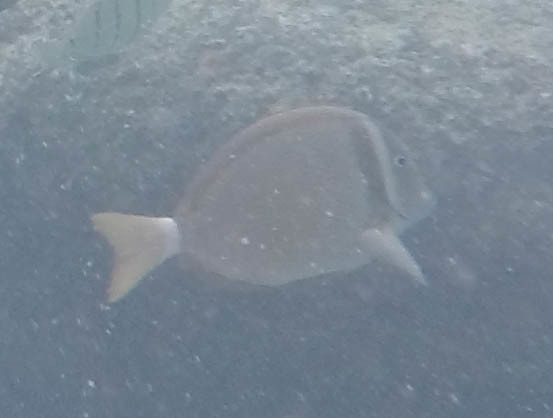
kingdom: Animalia
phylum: Chordata
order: Perciformes
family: Acanthuridae
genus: Acanthurus
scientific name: Acanthurus leucopareius
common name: Head-band surgeonfish
